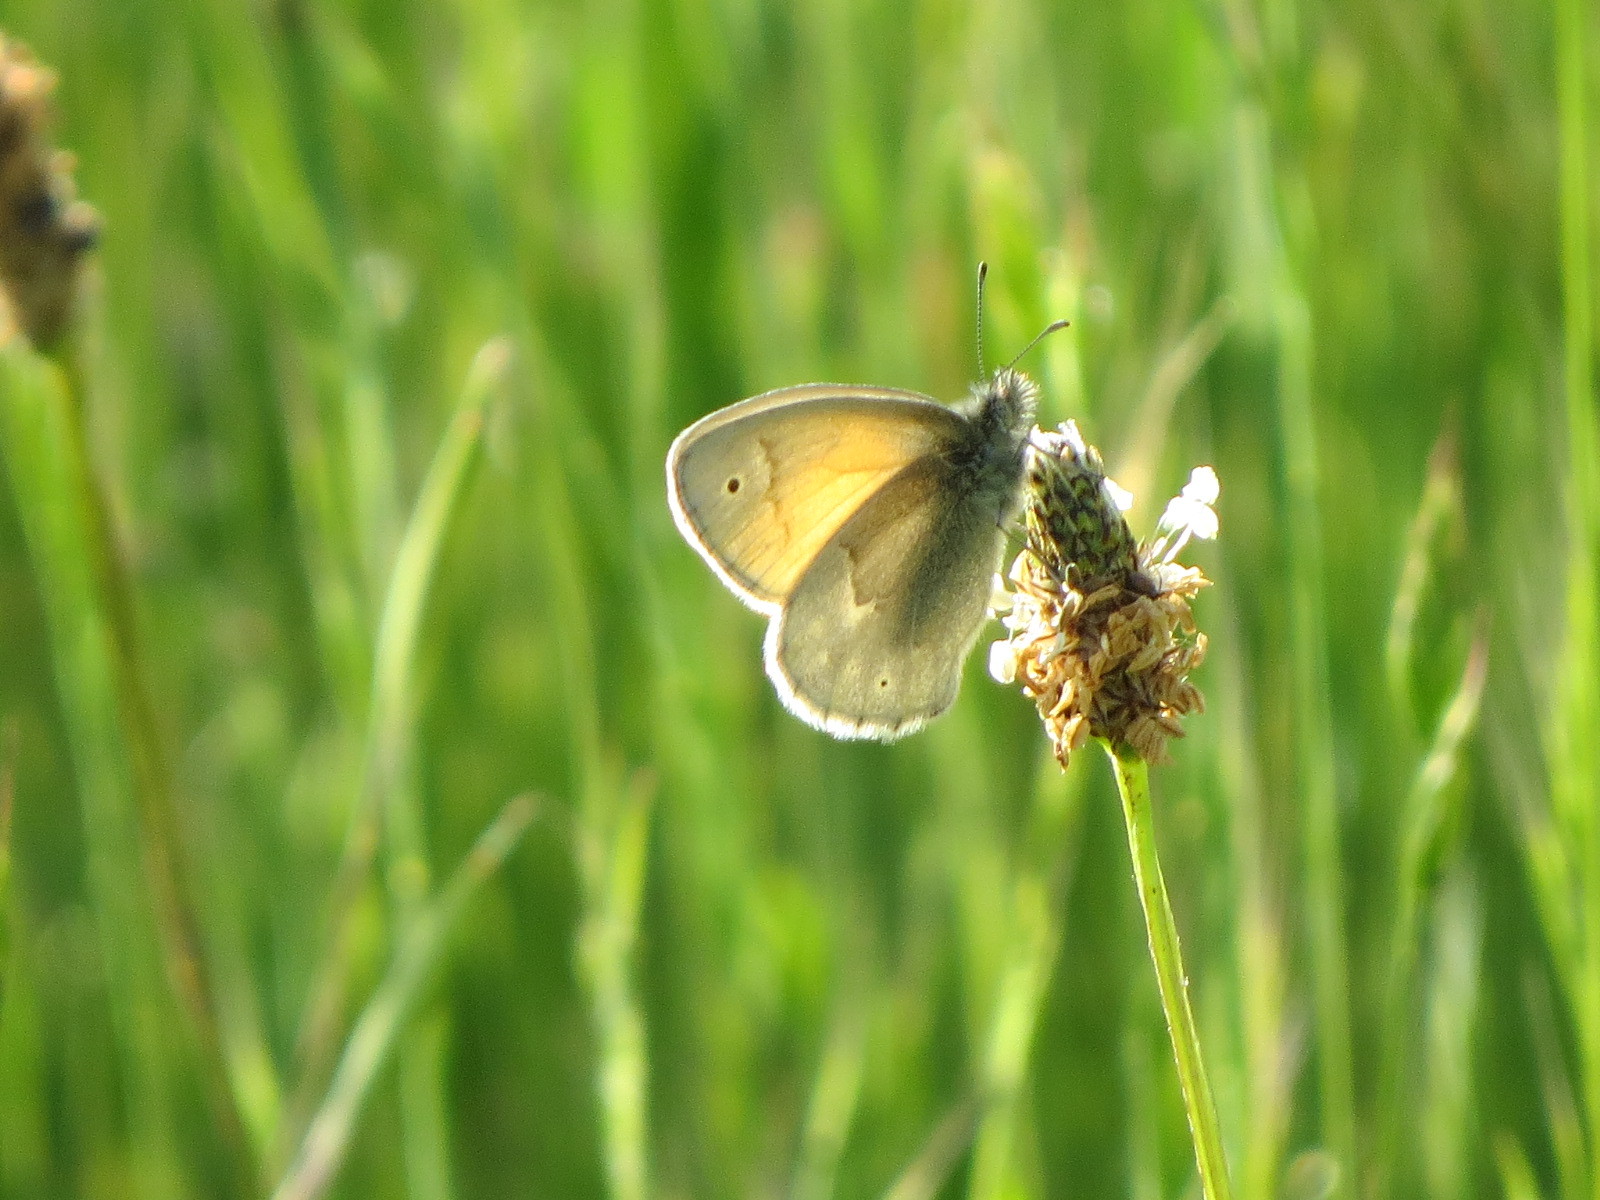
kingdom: Animalia
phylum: Arthropoda
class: Insecta
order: Lepidoptera
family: Nymphalidae
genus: Coenonympha
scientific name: Coenonympha california
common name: Common ringlet
